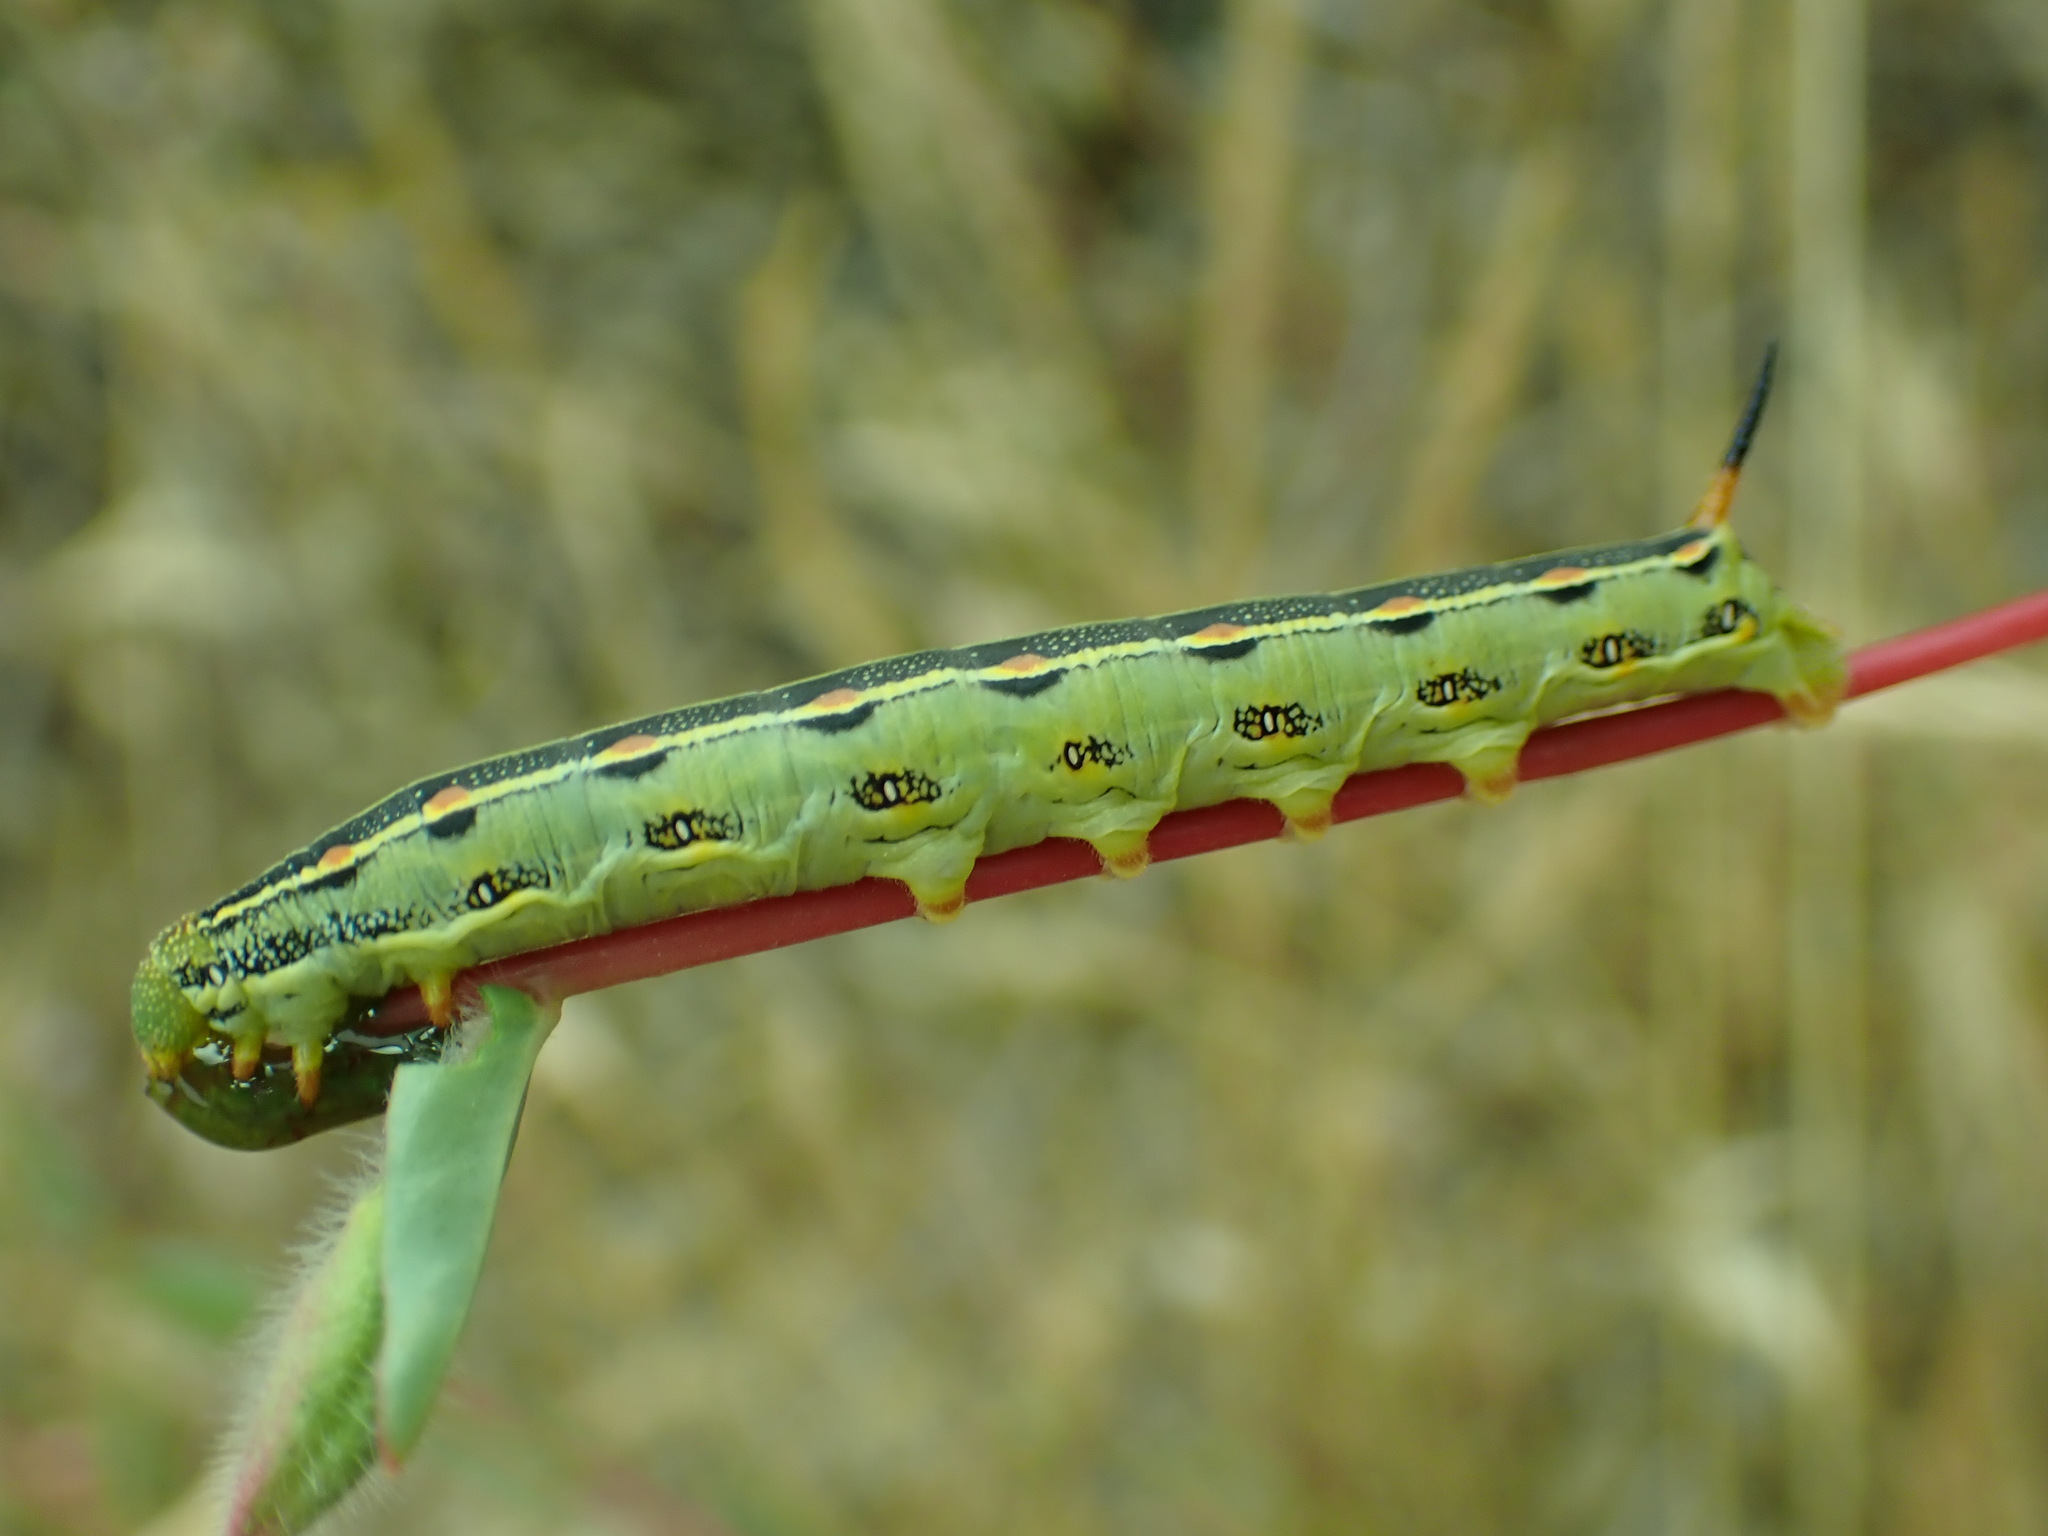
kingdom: Animalia
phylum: Arthropoda
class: Insecta
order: Lepidoptera
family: Sphingidae
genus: Hyles
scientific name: Hyles lineata
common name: White-lined sphinx
